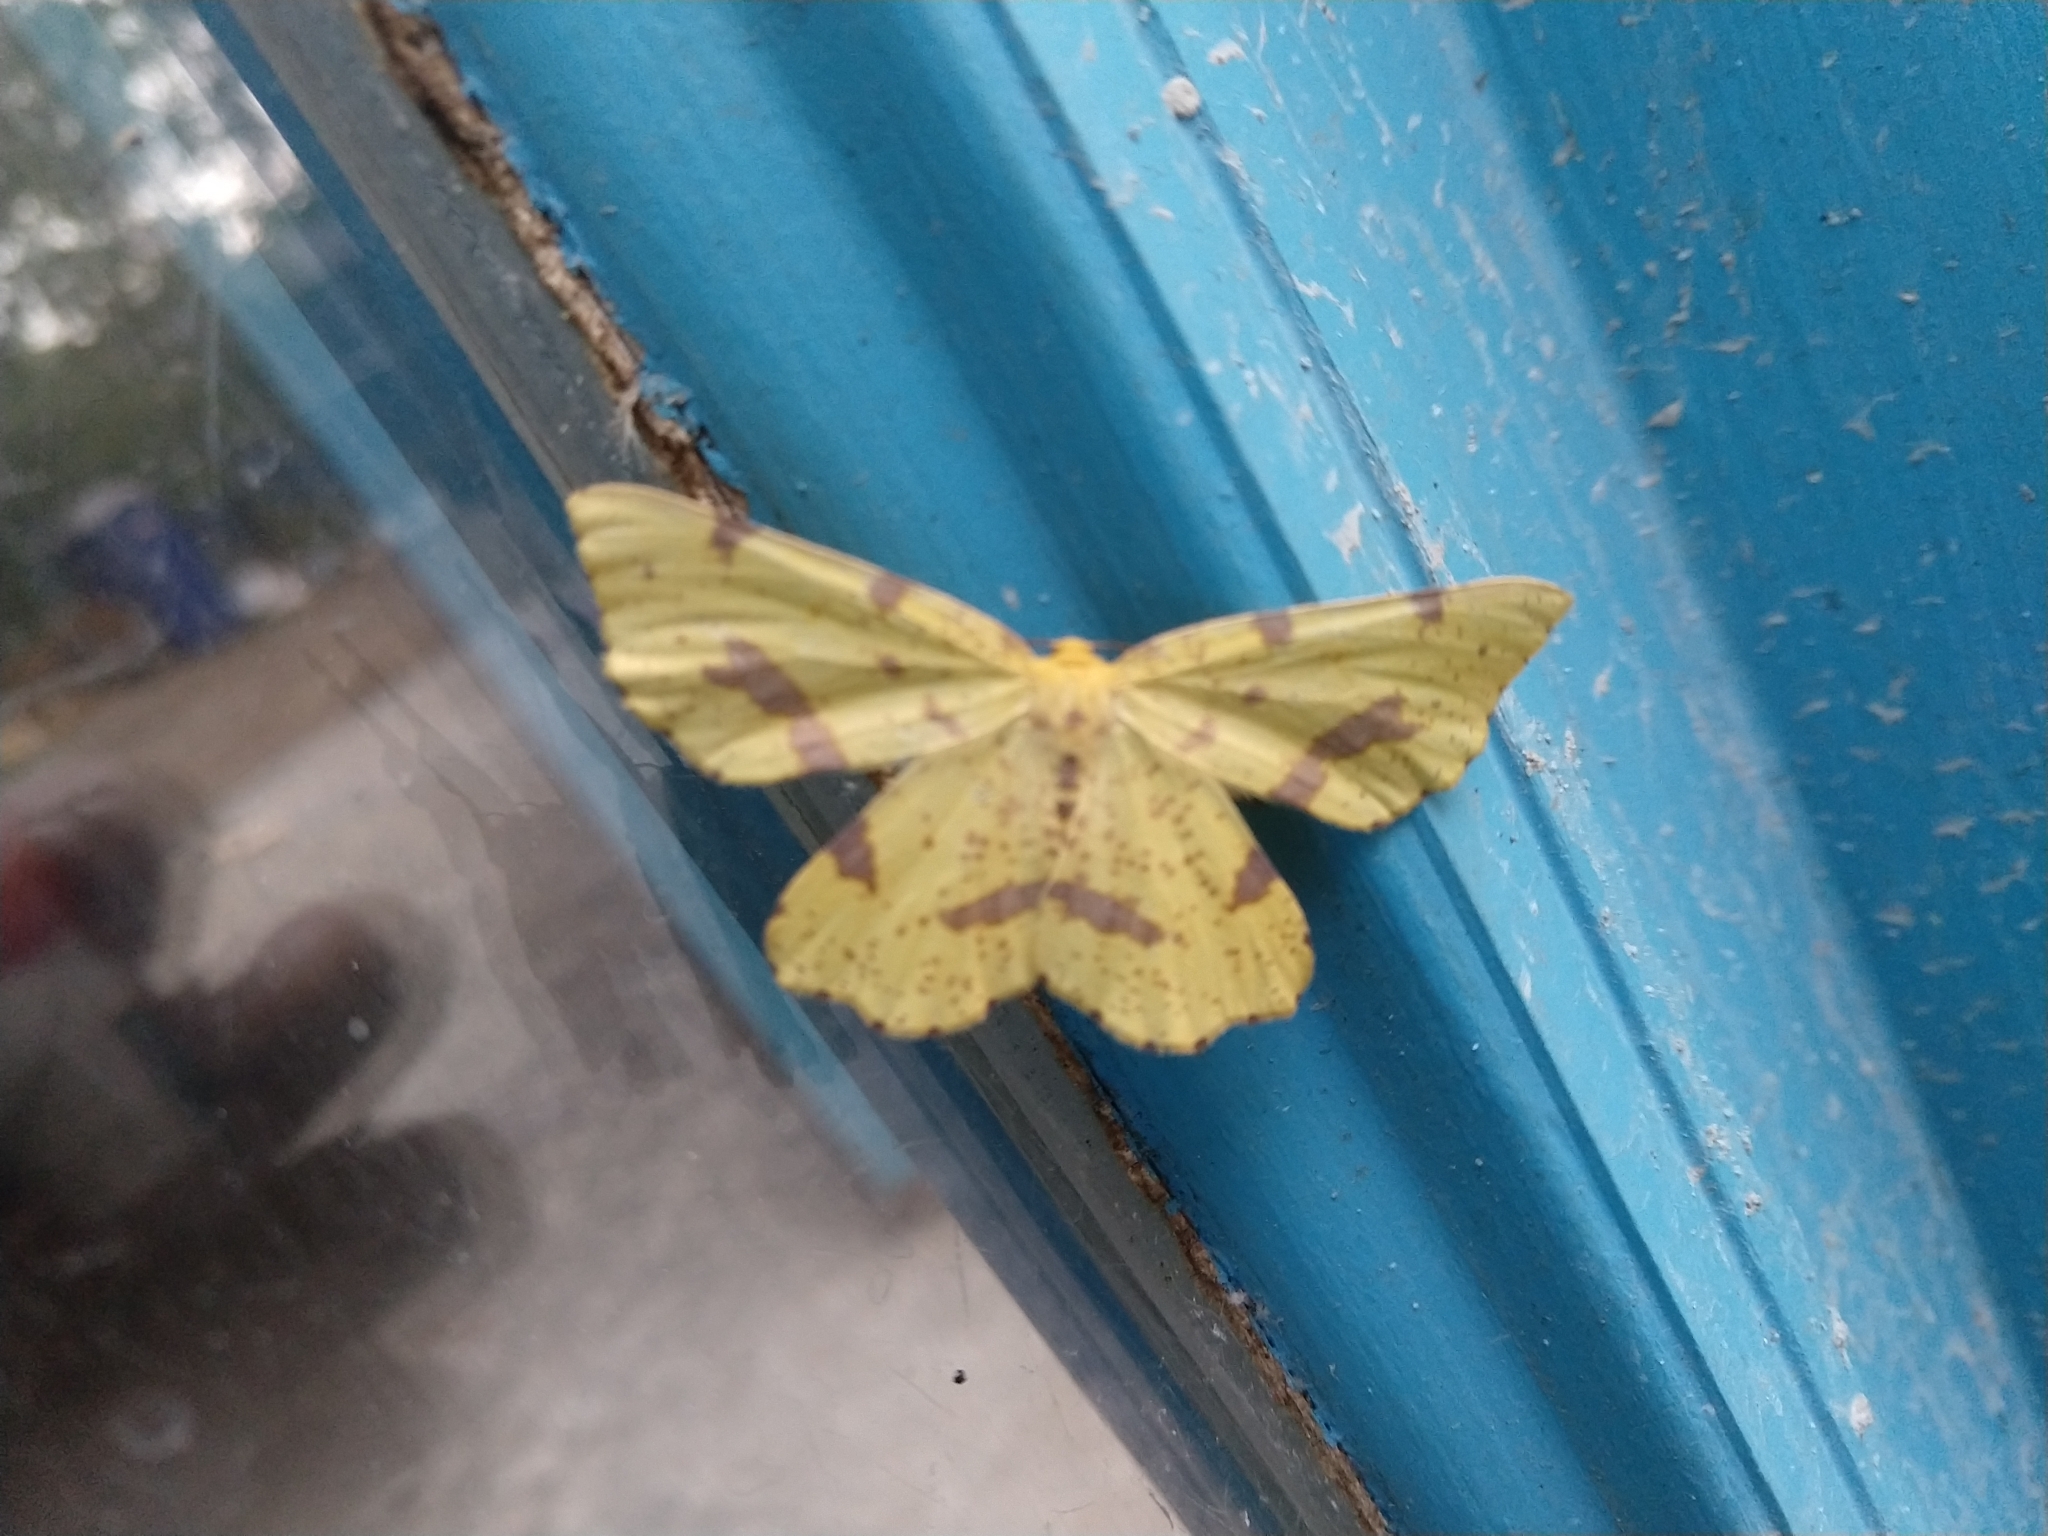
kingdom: Animalia
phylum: Arthropoda
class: Insecta
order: Lepidoptera
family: Geometridae
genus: Xanthotype
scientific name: Xanthotype
